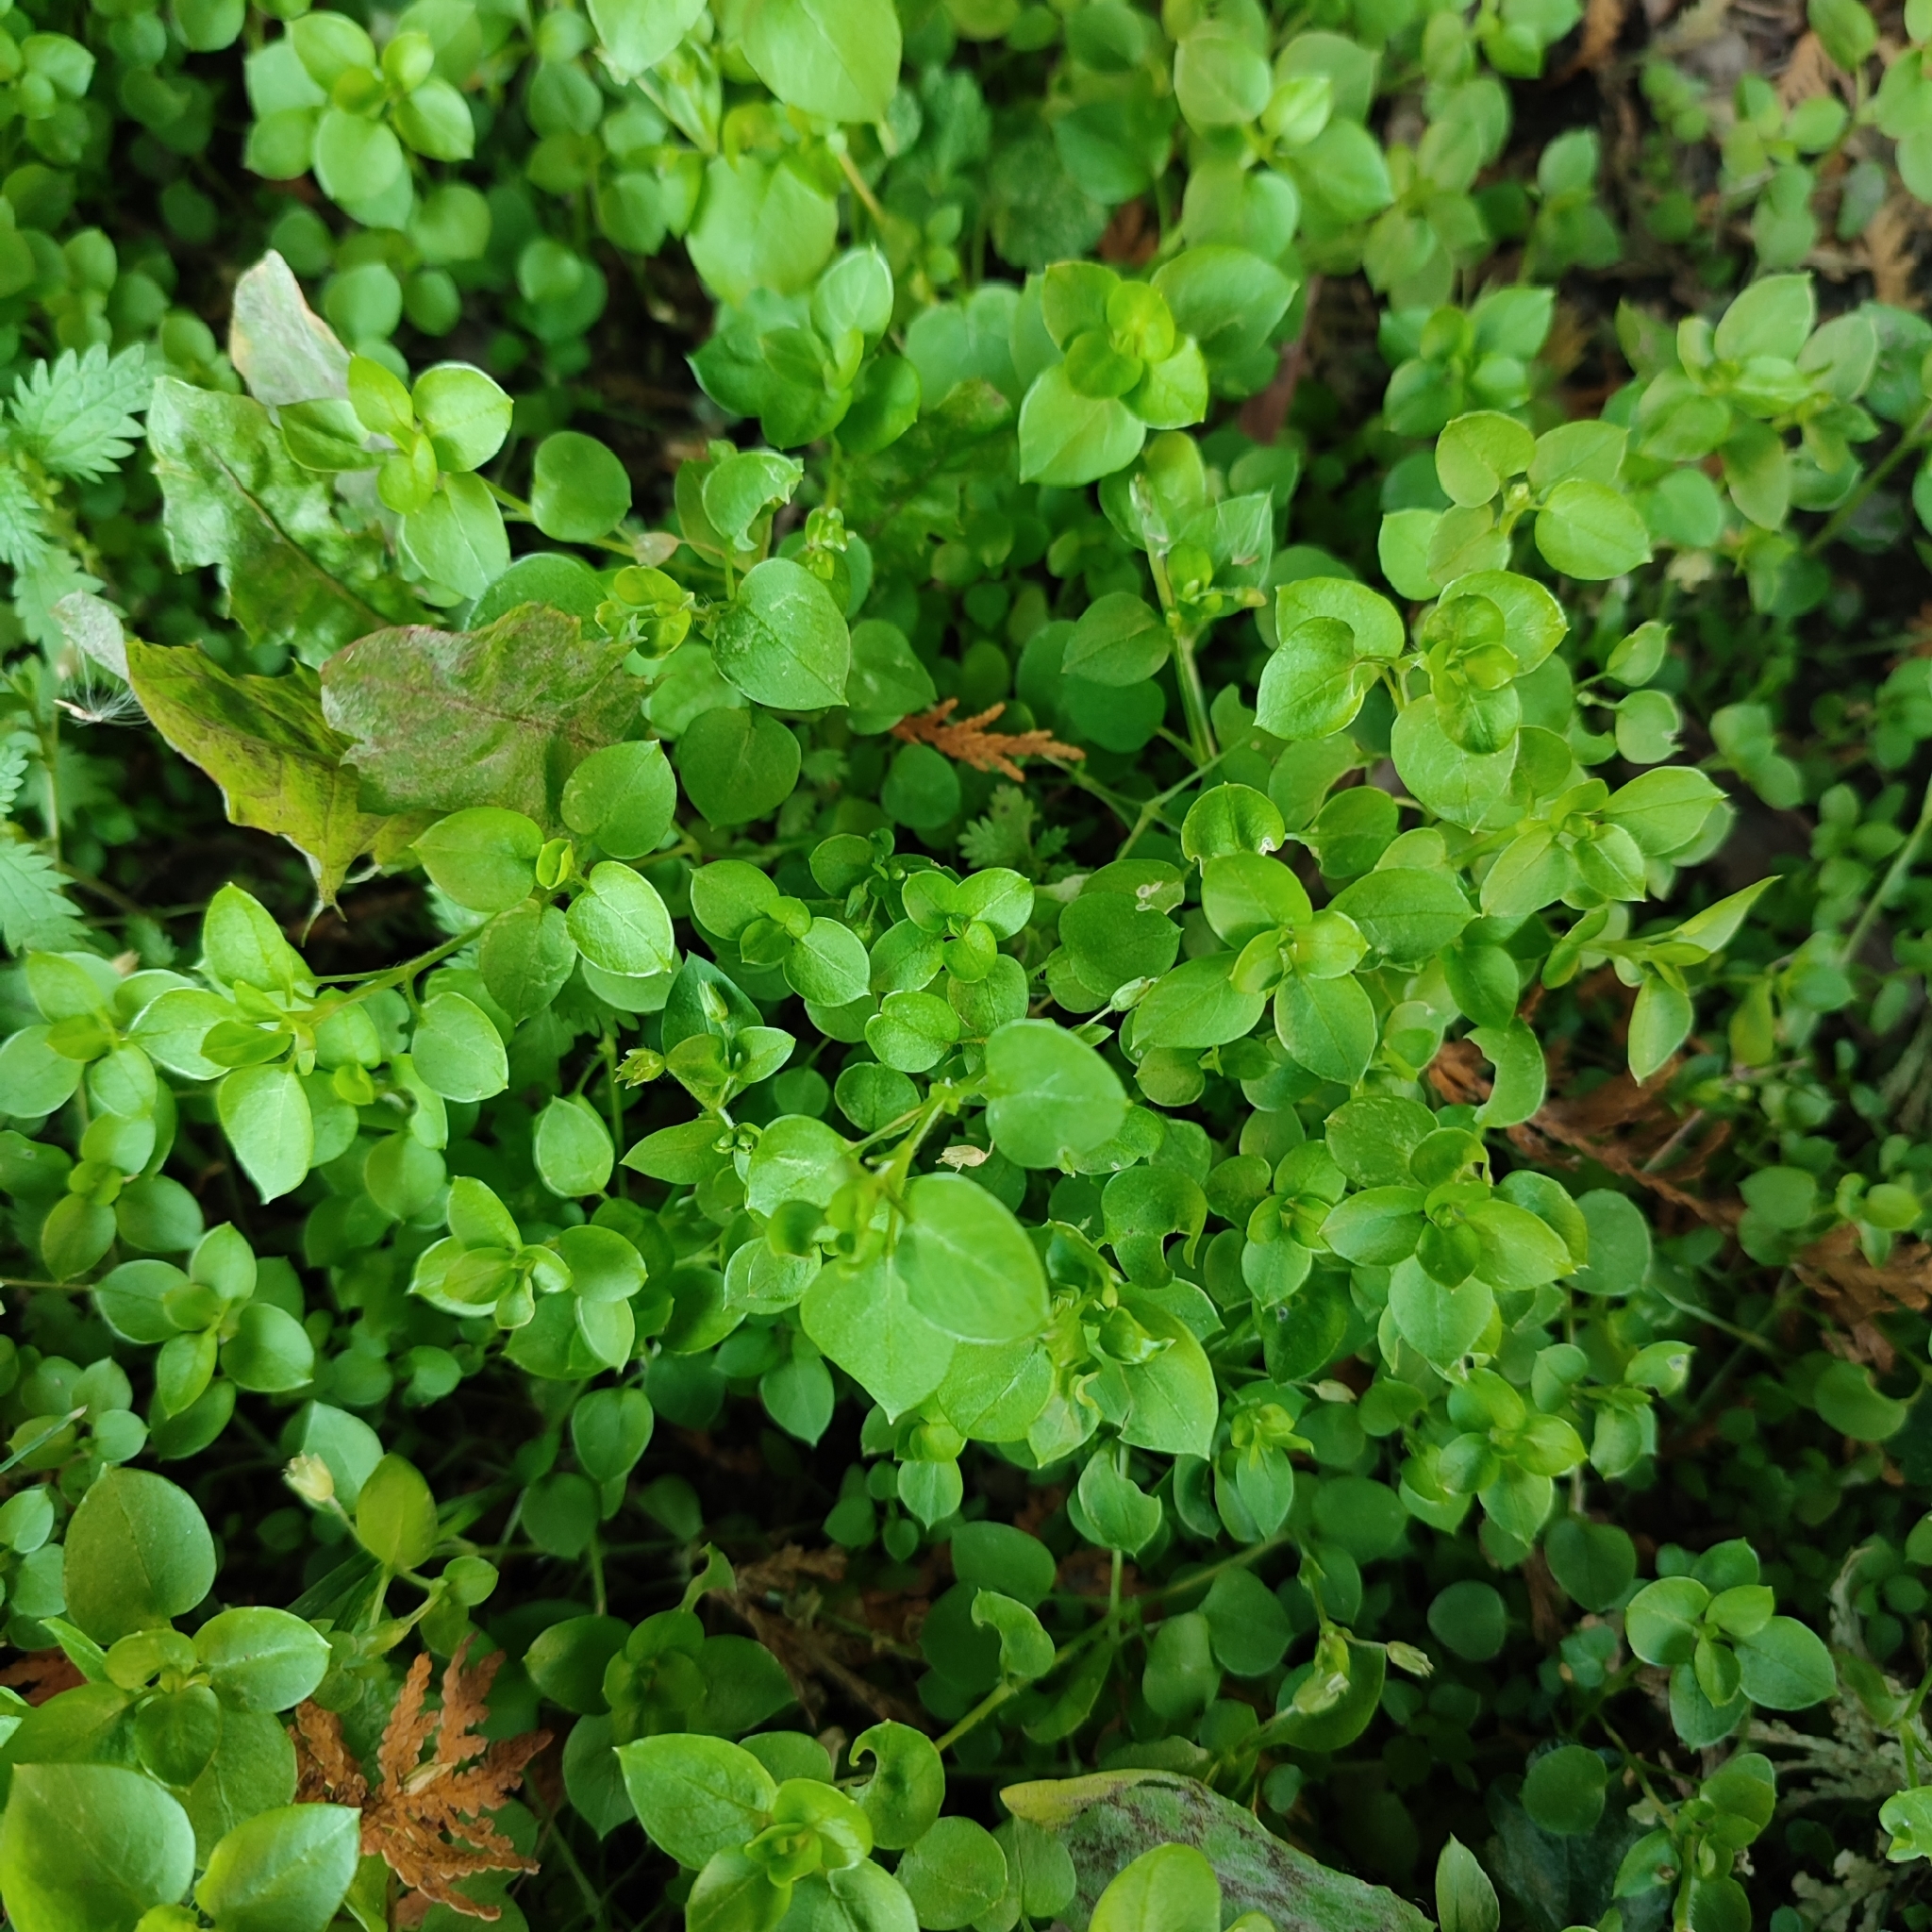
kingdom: Plantae
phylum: Tracheophyta
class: Magnoliopsida
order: Caryophyllales
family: Caryophyllaceae
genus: Stellaria
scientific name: Stellaria media
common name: Common chickweed
